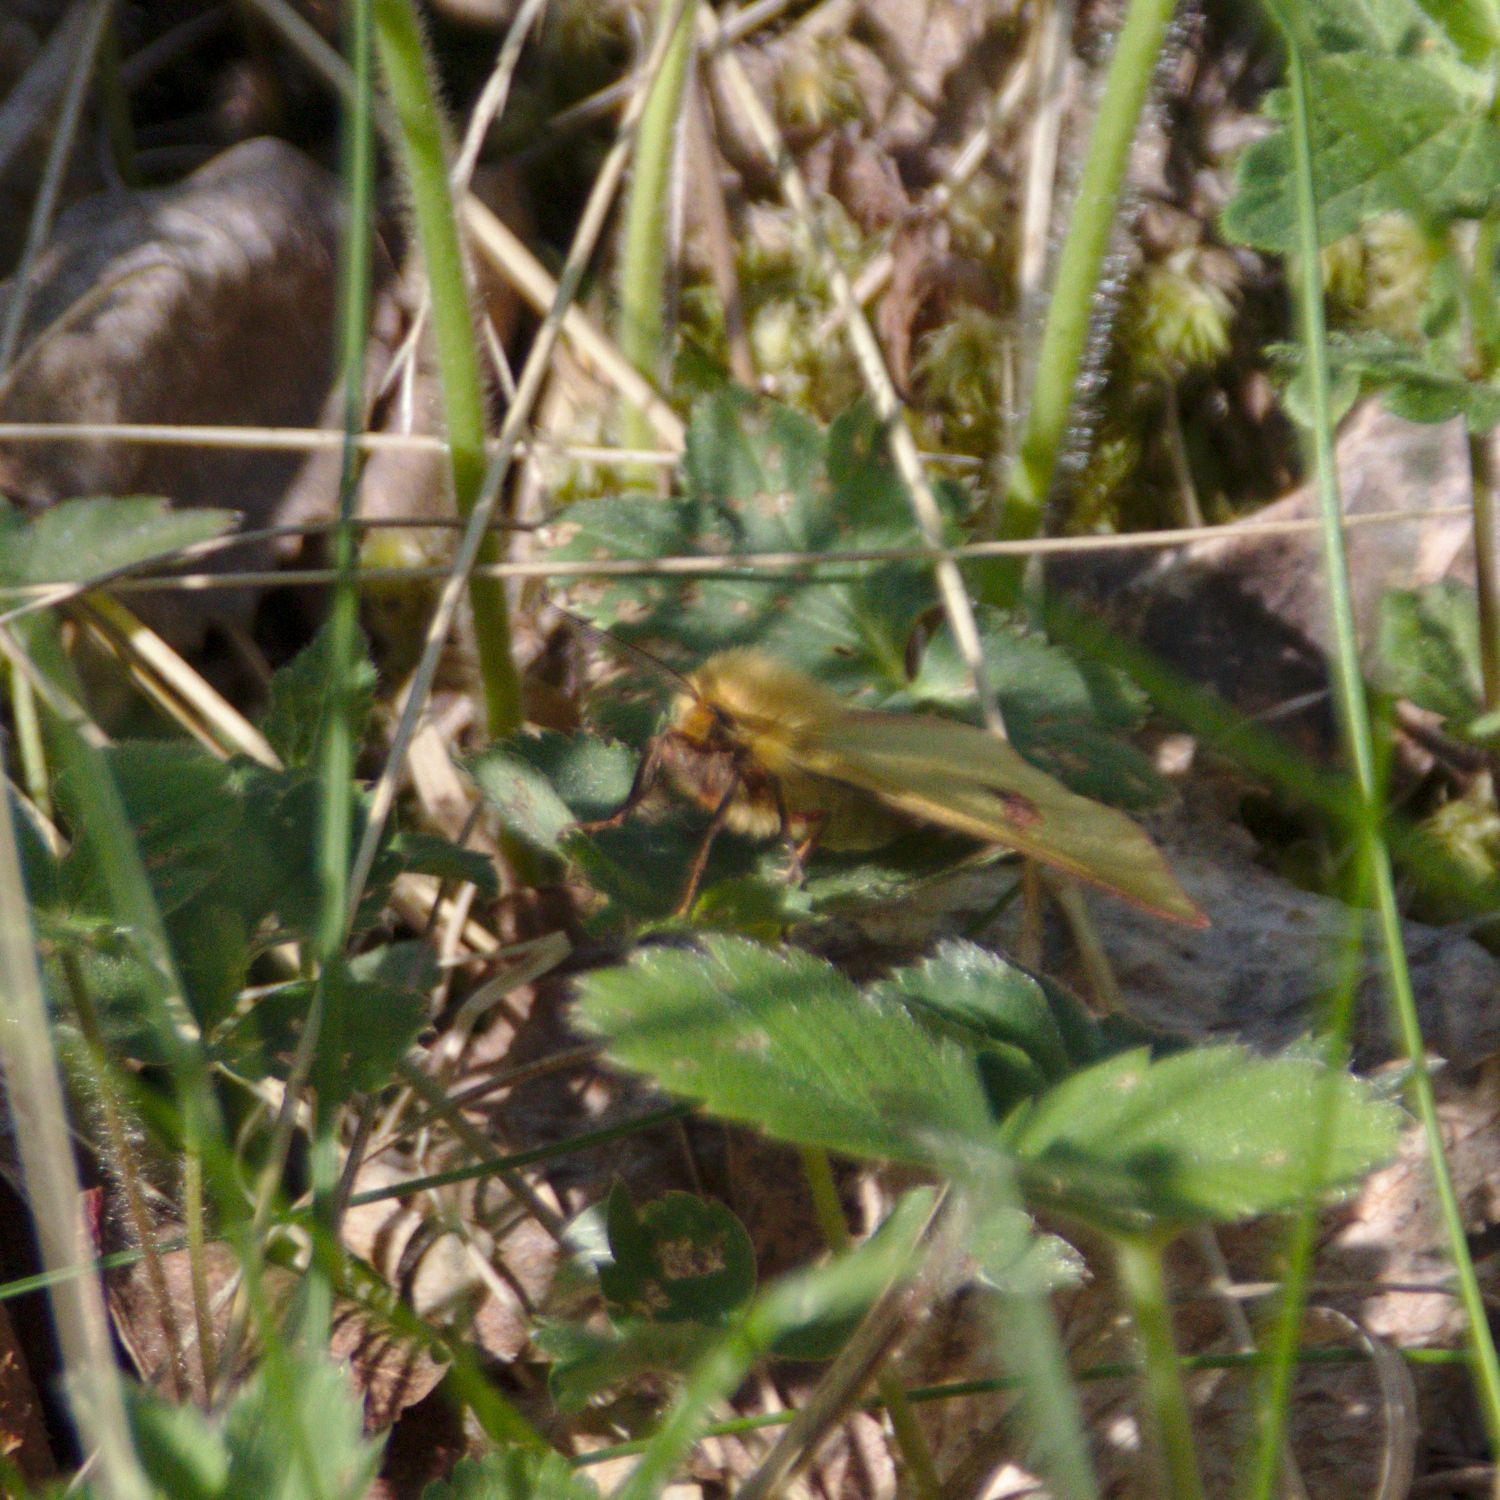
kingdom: Animalia
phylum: Arthropoda
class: Insecta
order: Lepidoptera
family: Erebidae
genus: Diacrisia
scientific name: Diacrisia sannio
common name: Clouded buff
